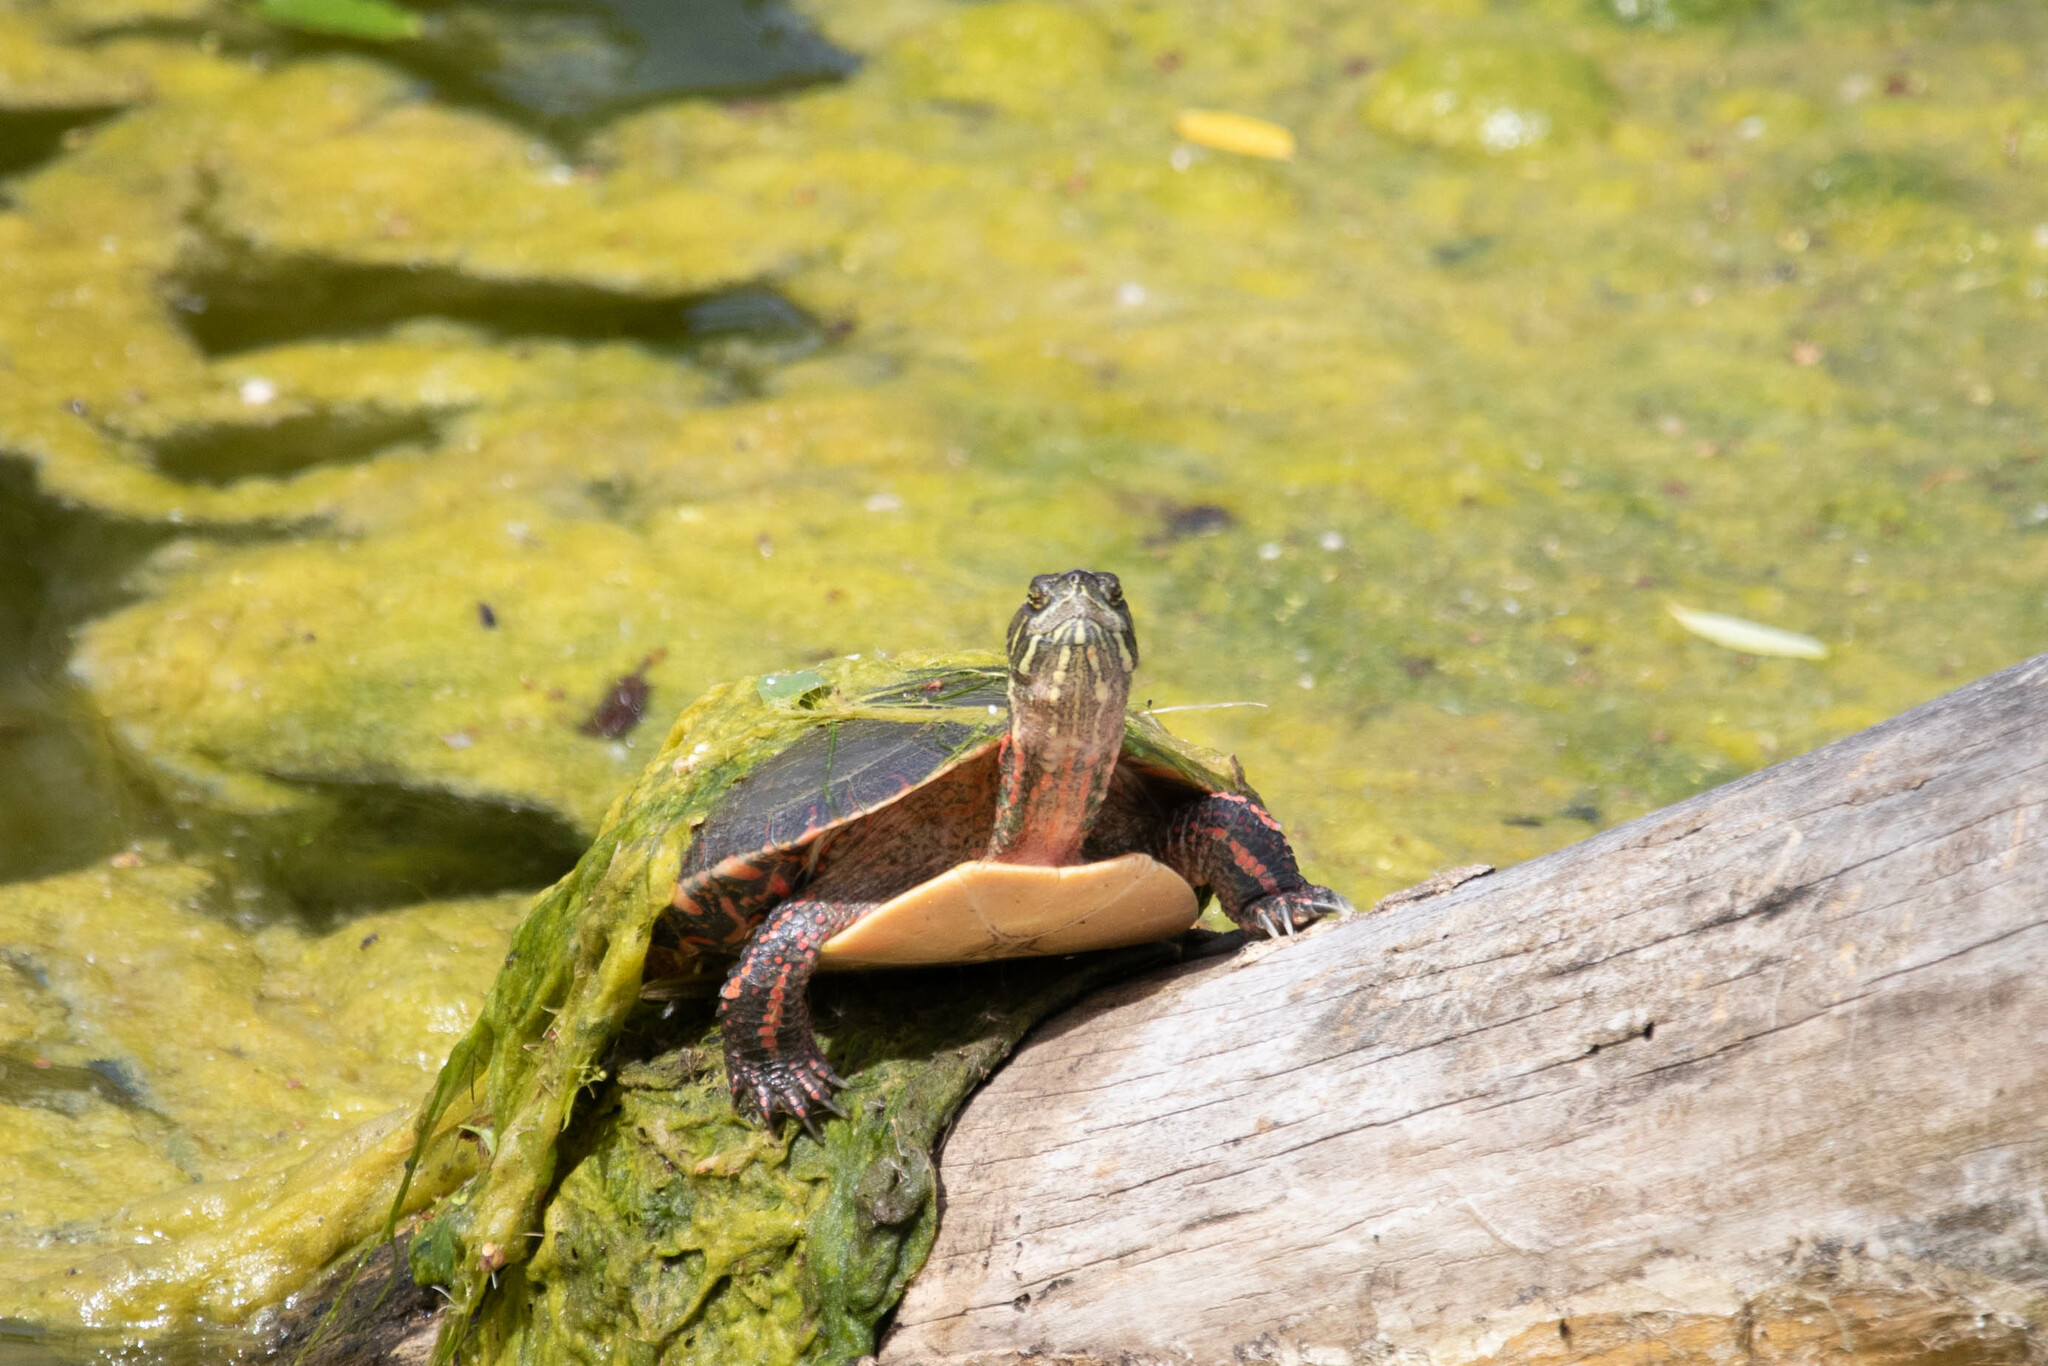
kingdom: Animalia
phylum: Chordata
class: Testudines
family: Emydidae
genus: Chrysemys
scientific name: Chrysemys picta
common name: Painted turtle
